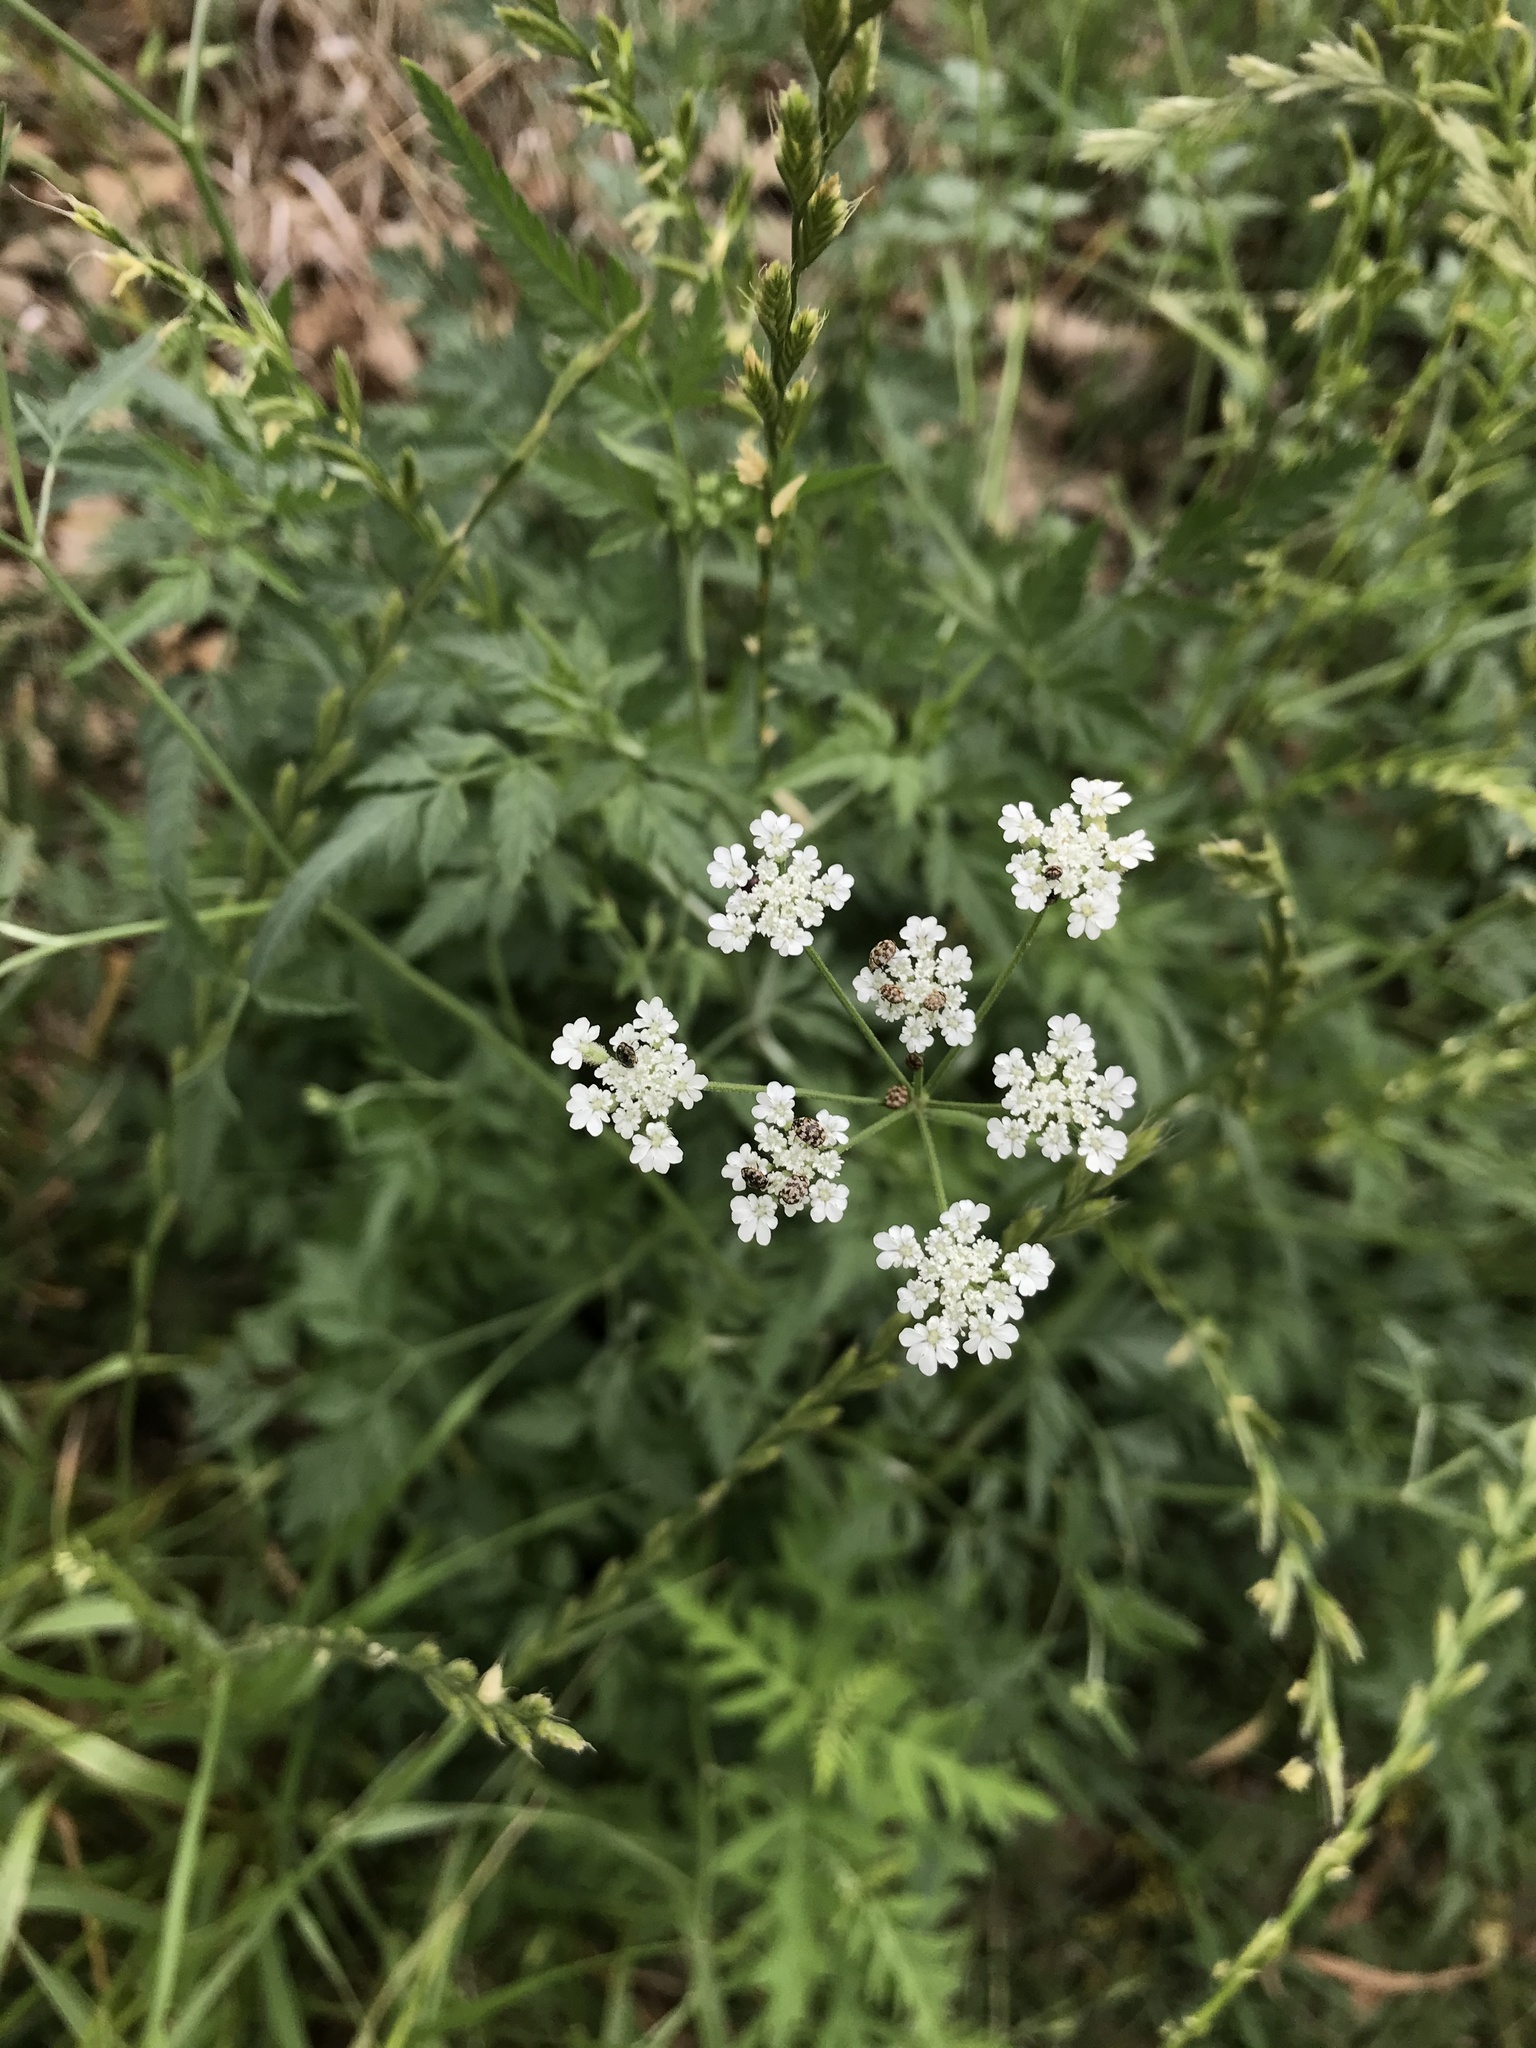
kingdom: Animalia
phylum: Arthropoda
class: Insecta
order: Coleoptera
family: Dermestidae
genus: Anthrenus
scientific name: Anthrenus verbasci
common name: Varied carpet beetle
